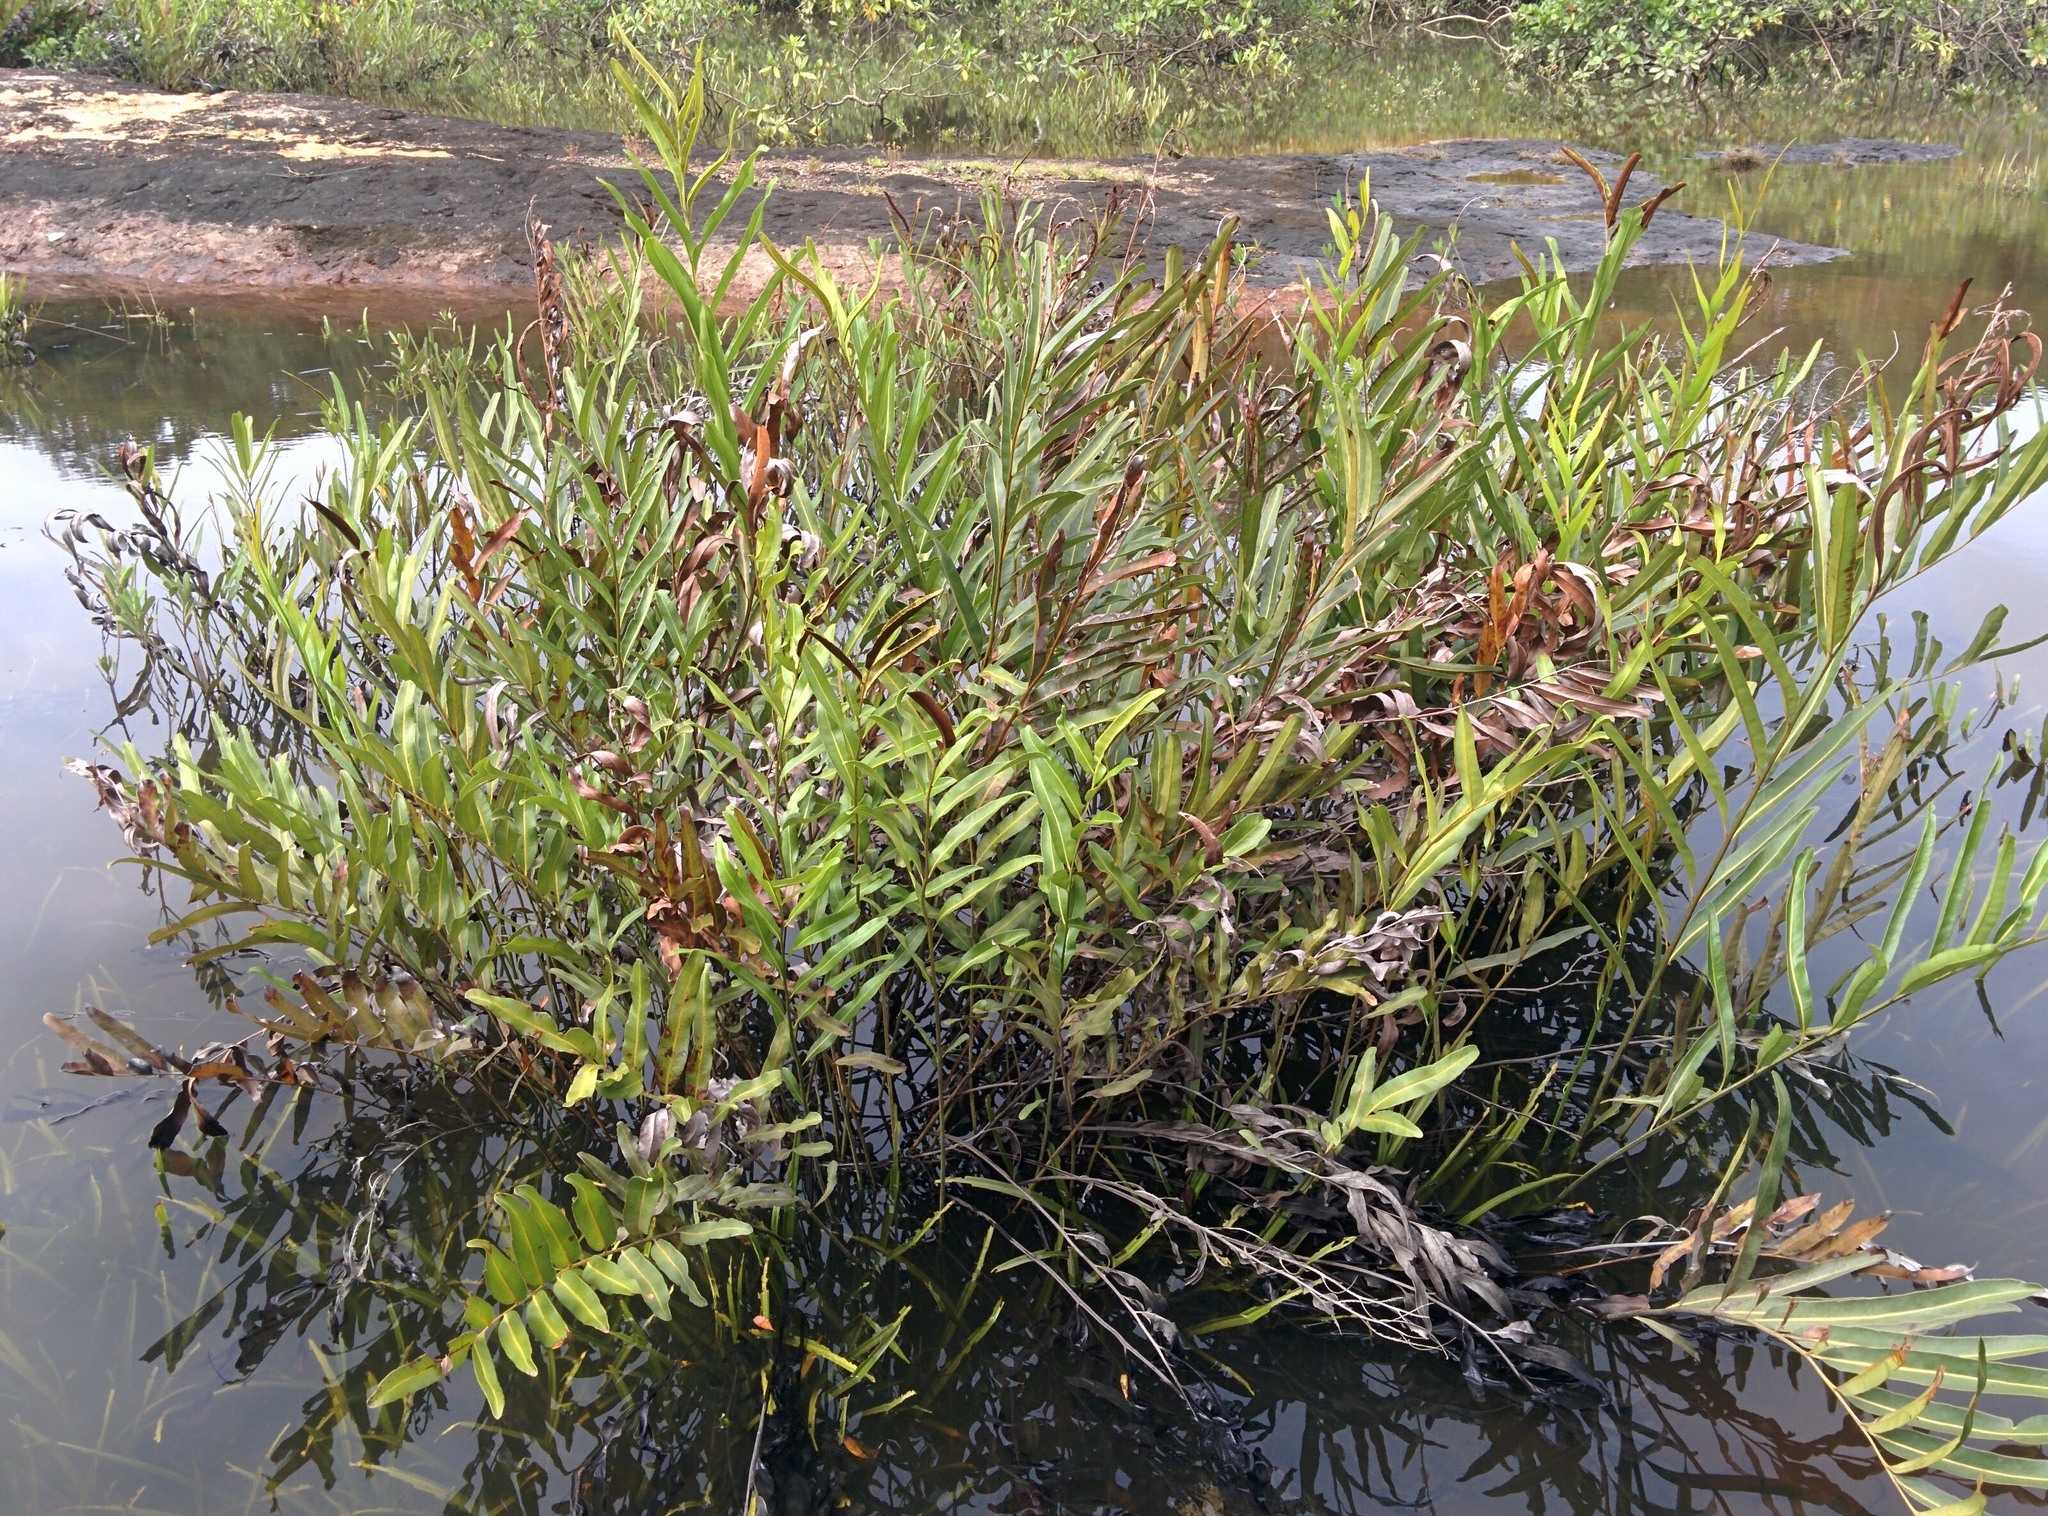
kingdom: Plantae
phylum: Tracheophyta
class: Polypodiopsida
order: Polypodiales
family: Pteridaceae
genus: Acrostichum
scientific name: Acrostichum aureum
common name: Leather fern
